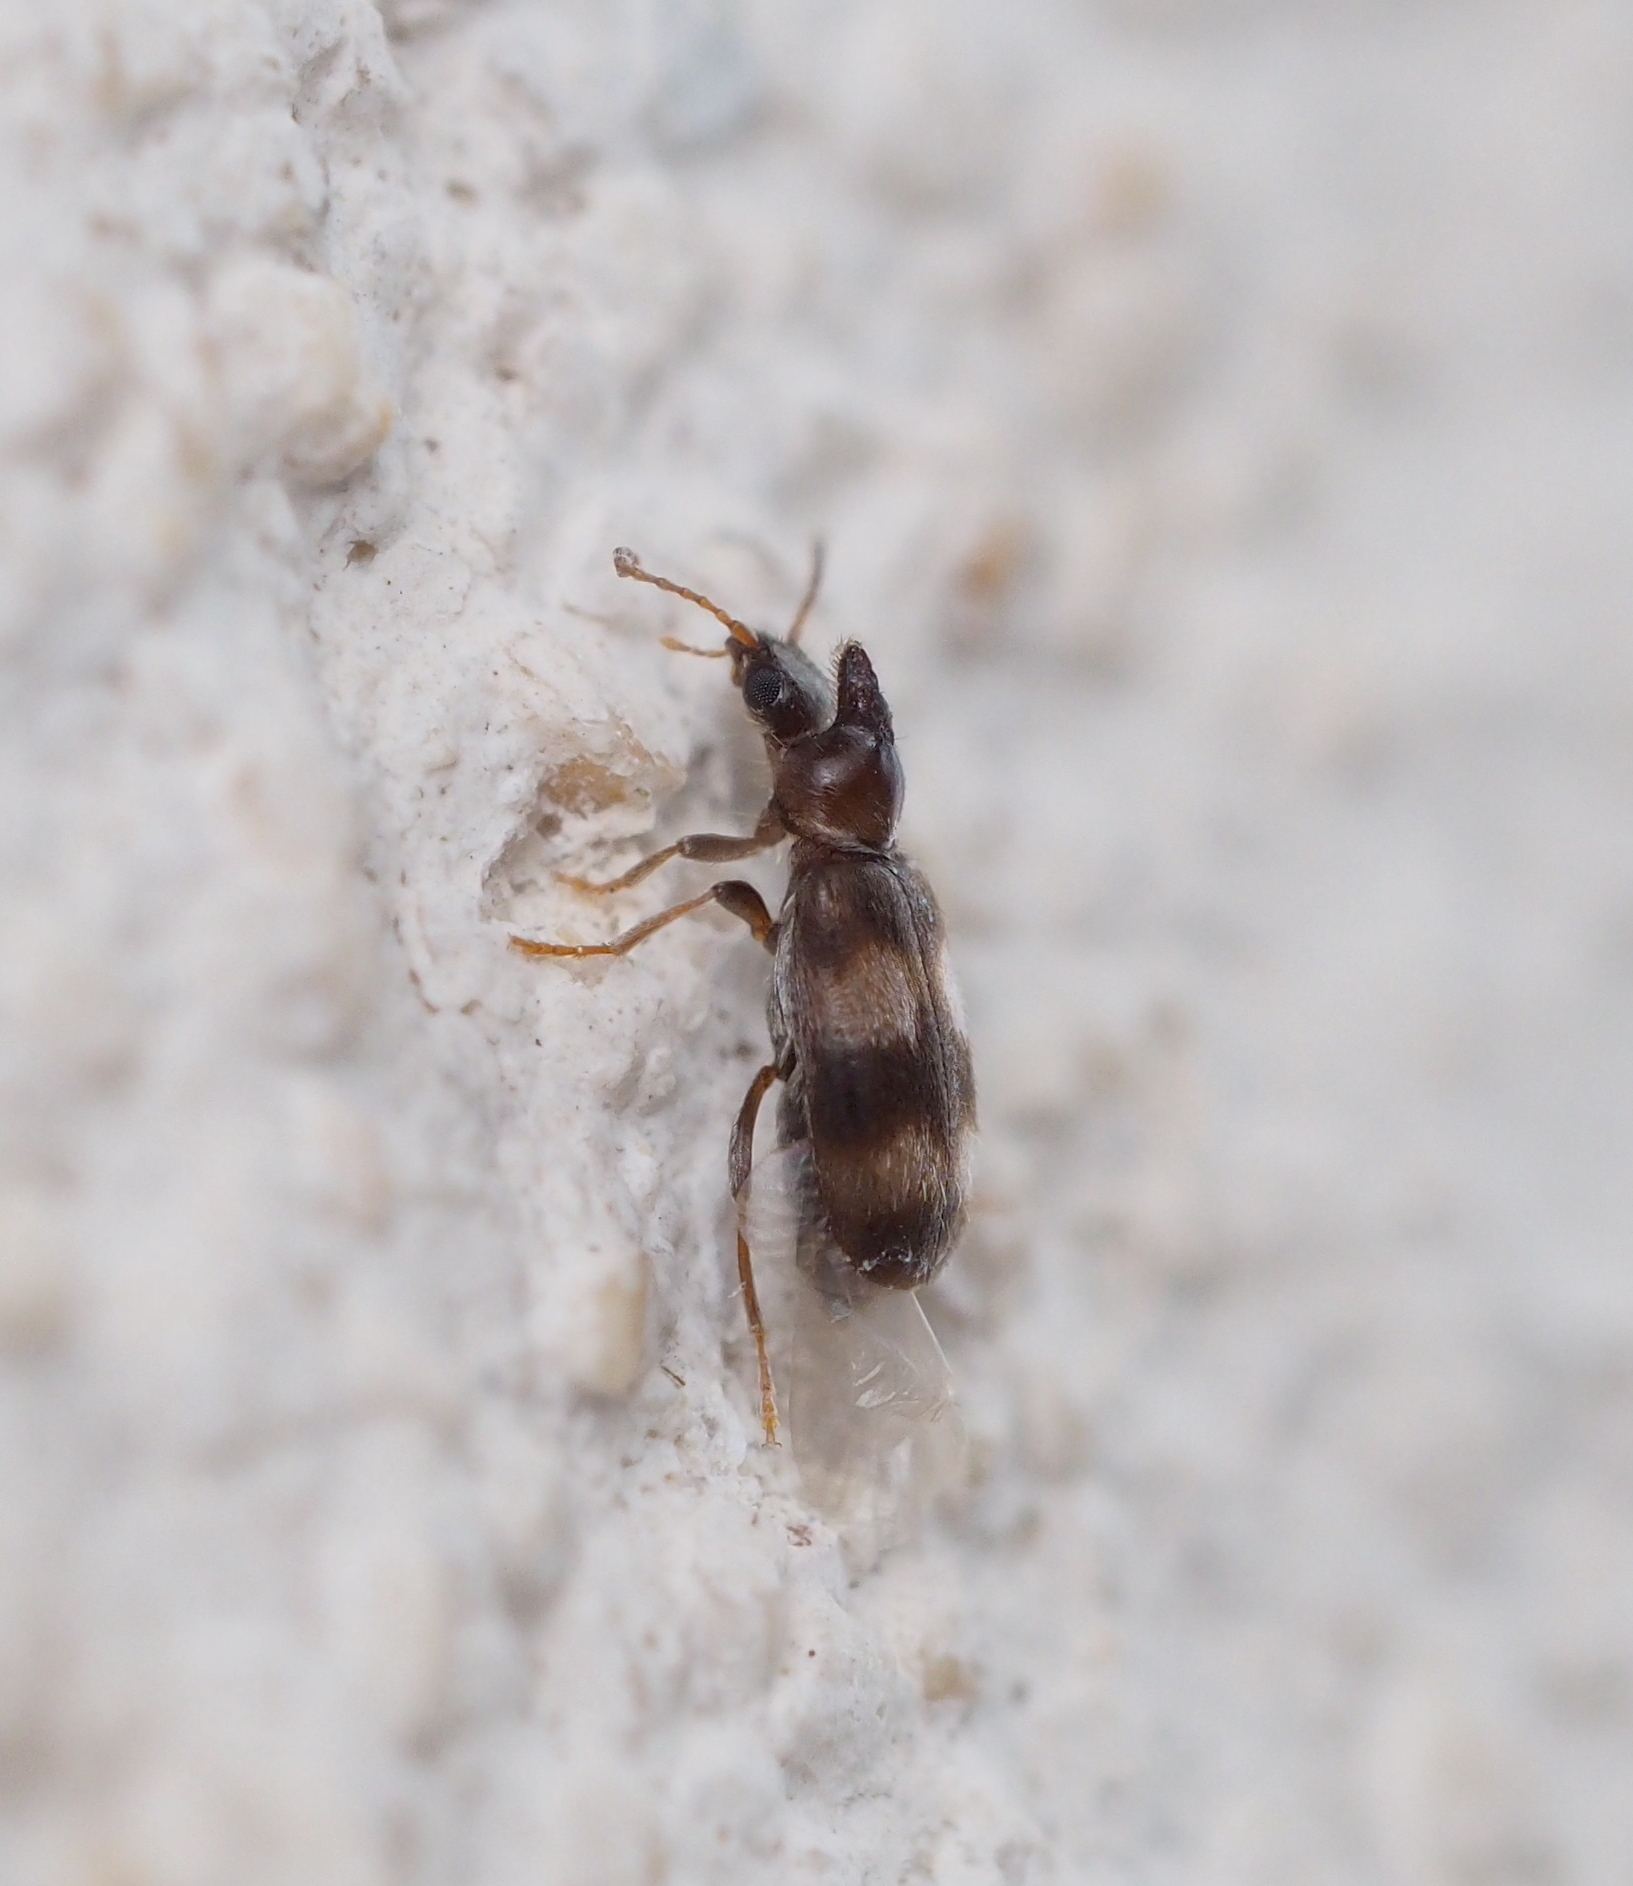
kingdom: Animalia
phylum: Arthropoda
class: Insecta
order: Coleoptera
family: Anthicidae
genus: Notoxus
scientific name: Notoxus trifasciatus
